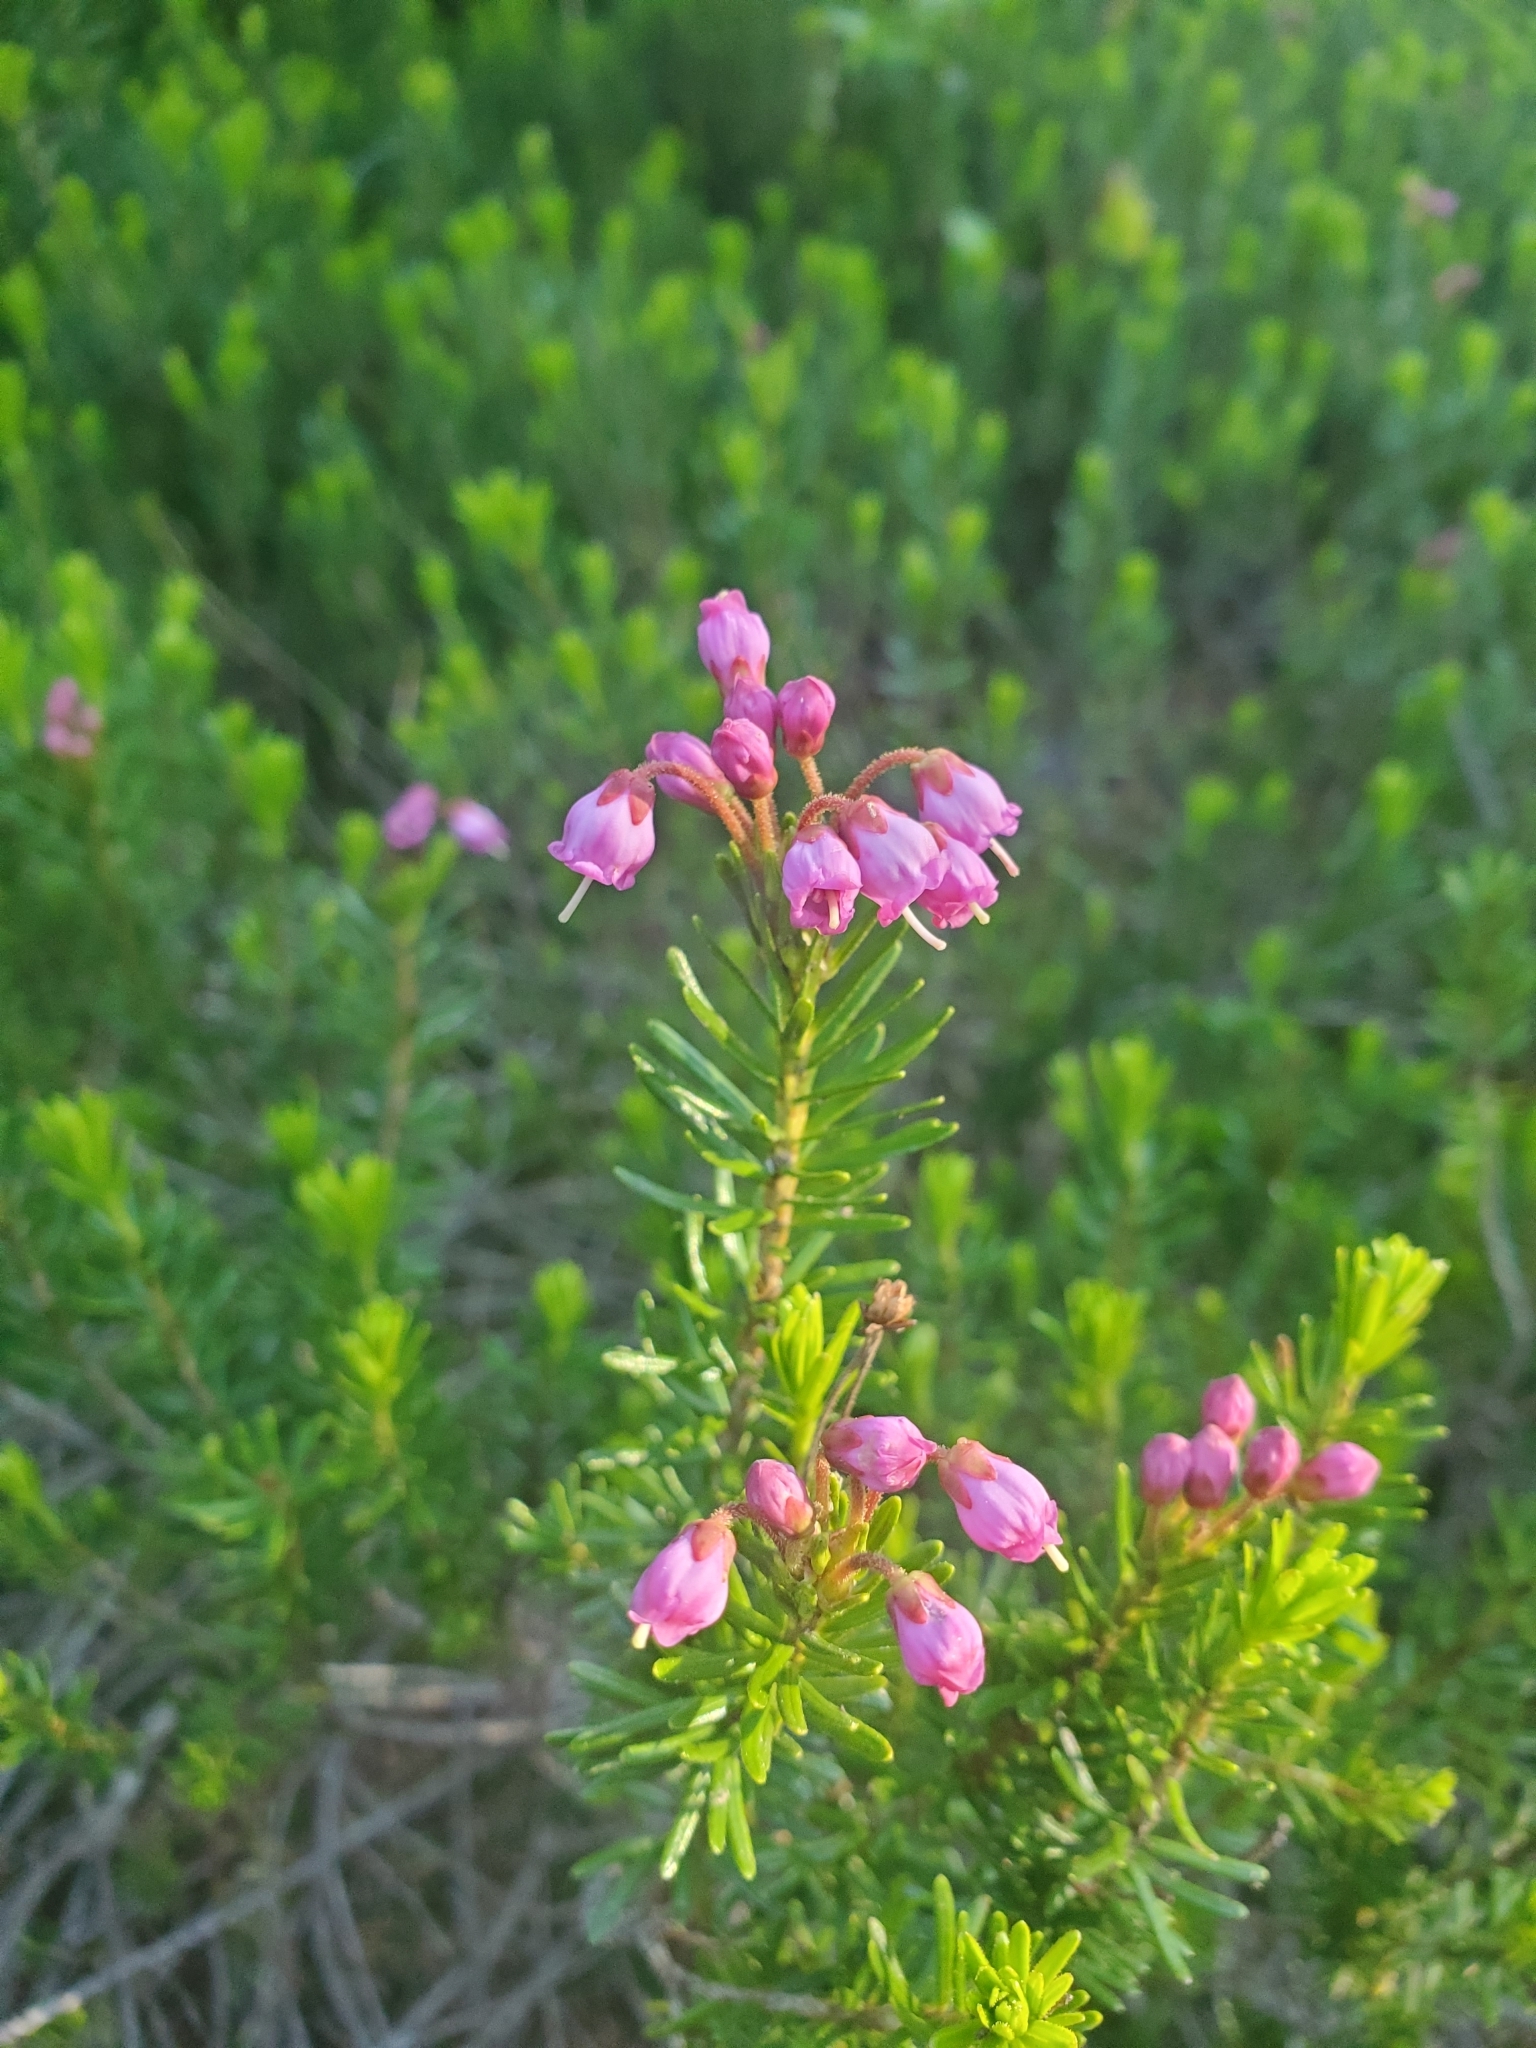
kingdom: Plantae
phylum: Tracheophyta
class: Magnoliopsida
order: Ericales
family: Ericaceae
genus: Phyllodoce
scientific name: Phyllodoce empetriformis
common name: Pink mountain heather
